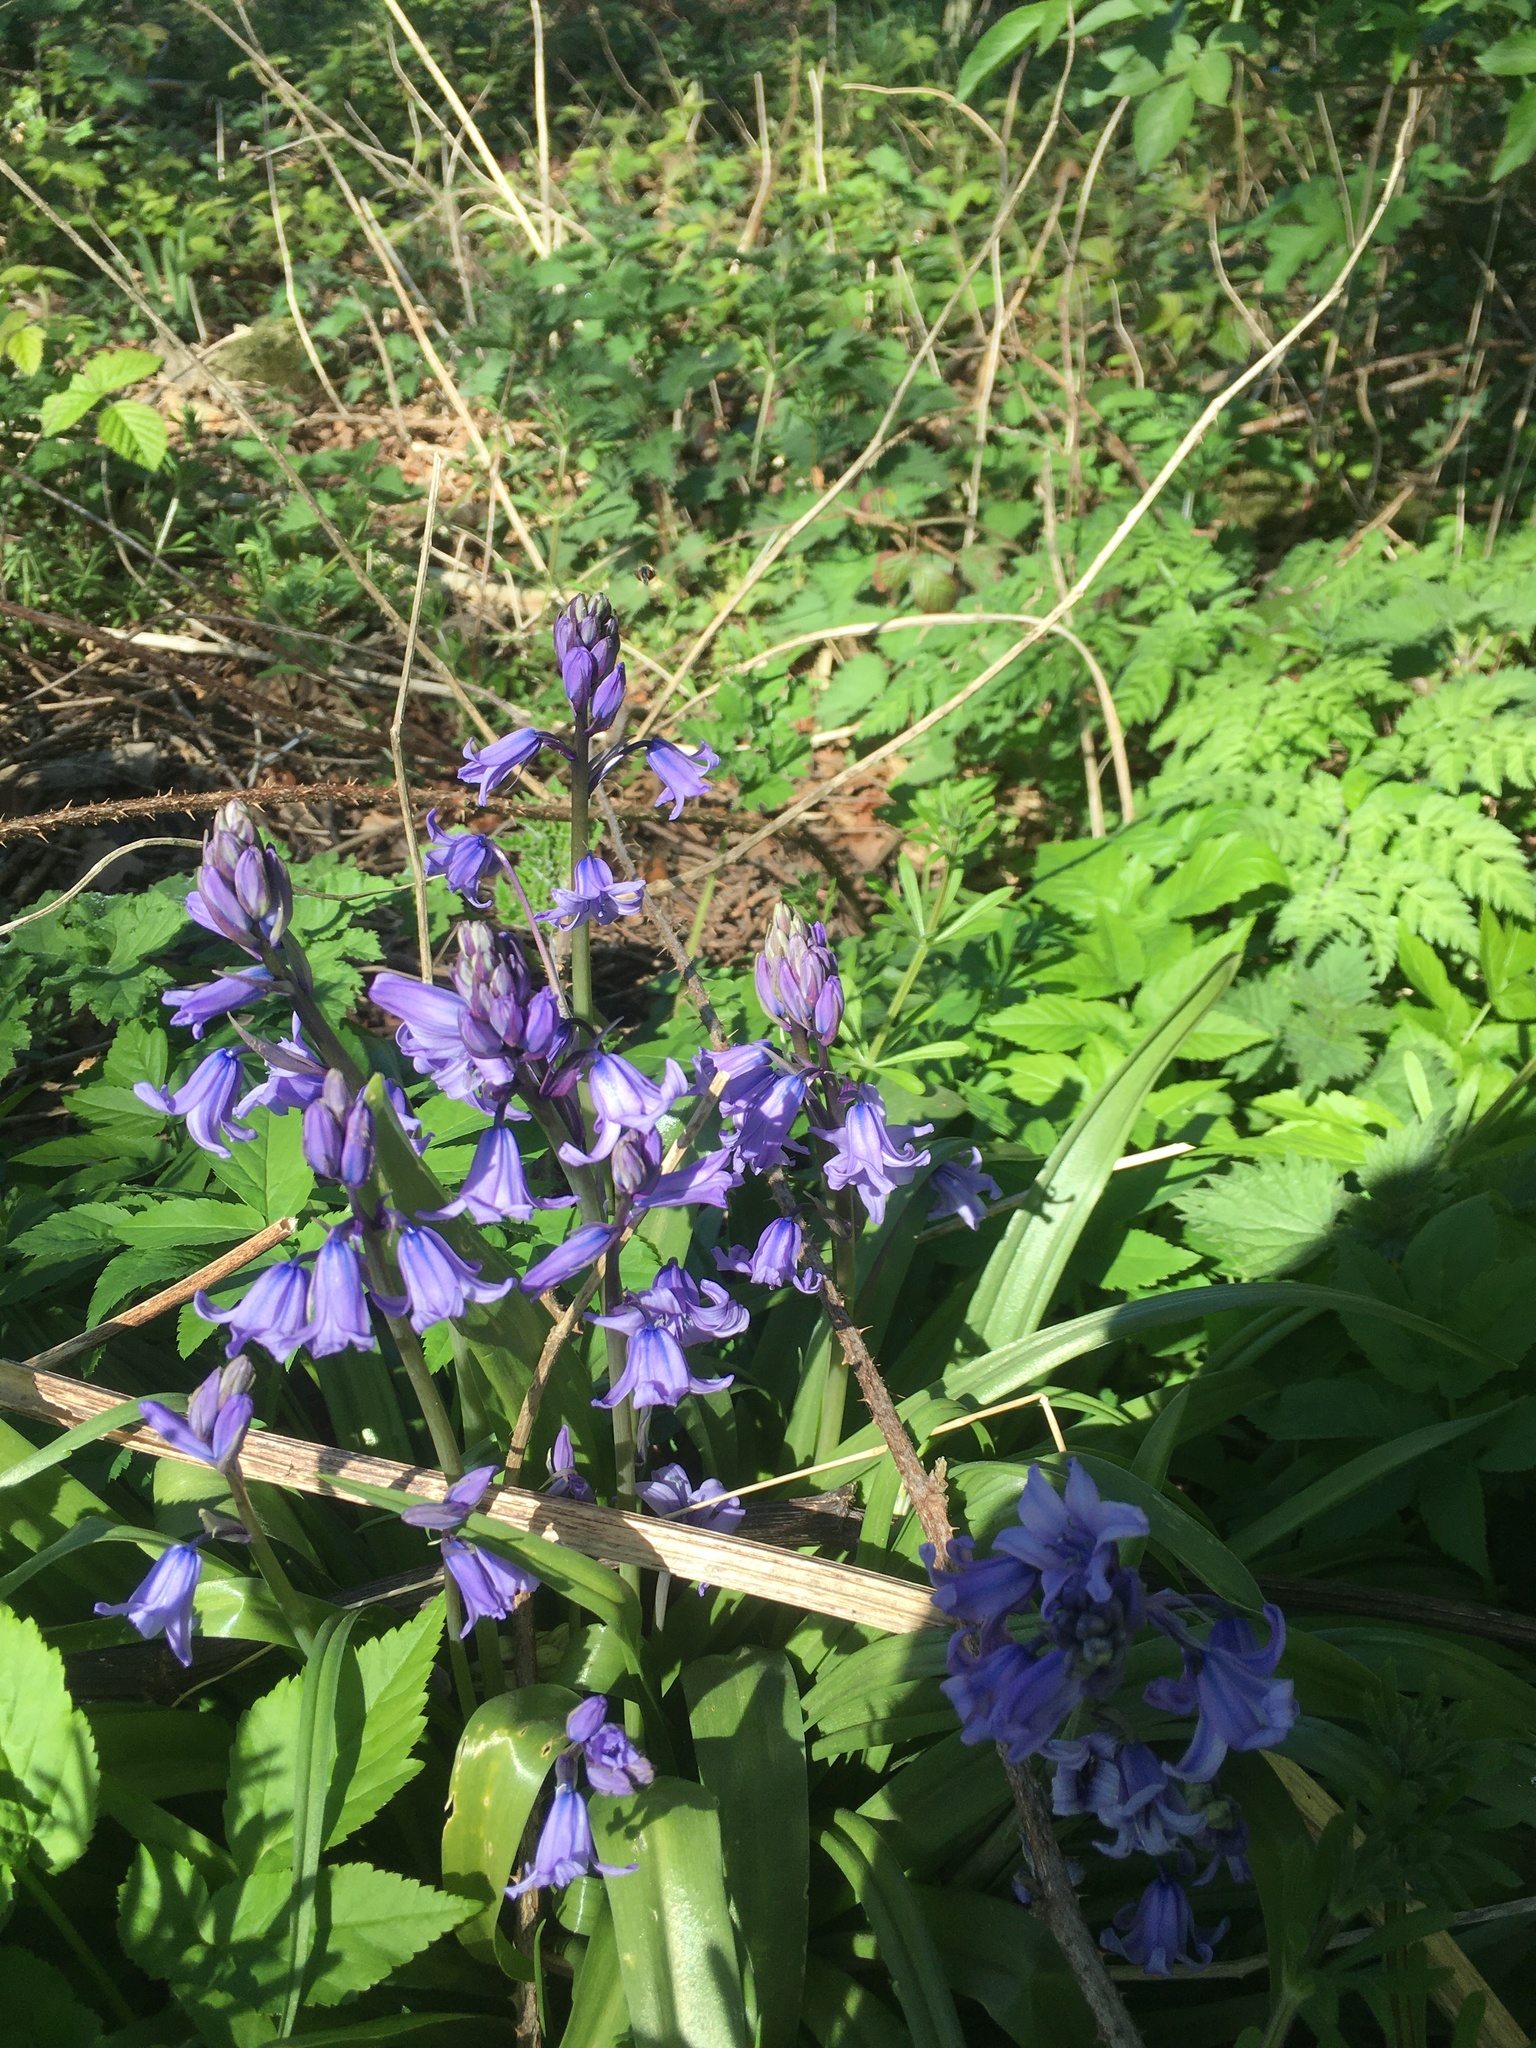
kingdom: Plantae
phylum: Tracheophyta
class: Liliopsida
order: Asparagales
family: Asparagaceae
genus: Hyacinthoides
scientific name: Hyacinthoides hispanica
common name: Spanish bluebell
